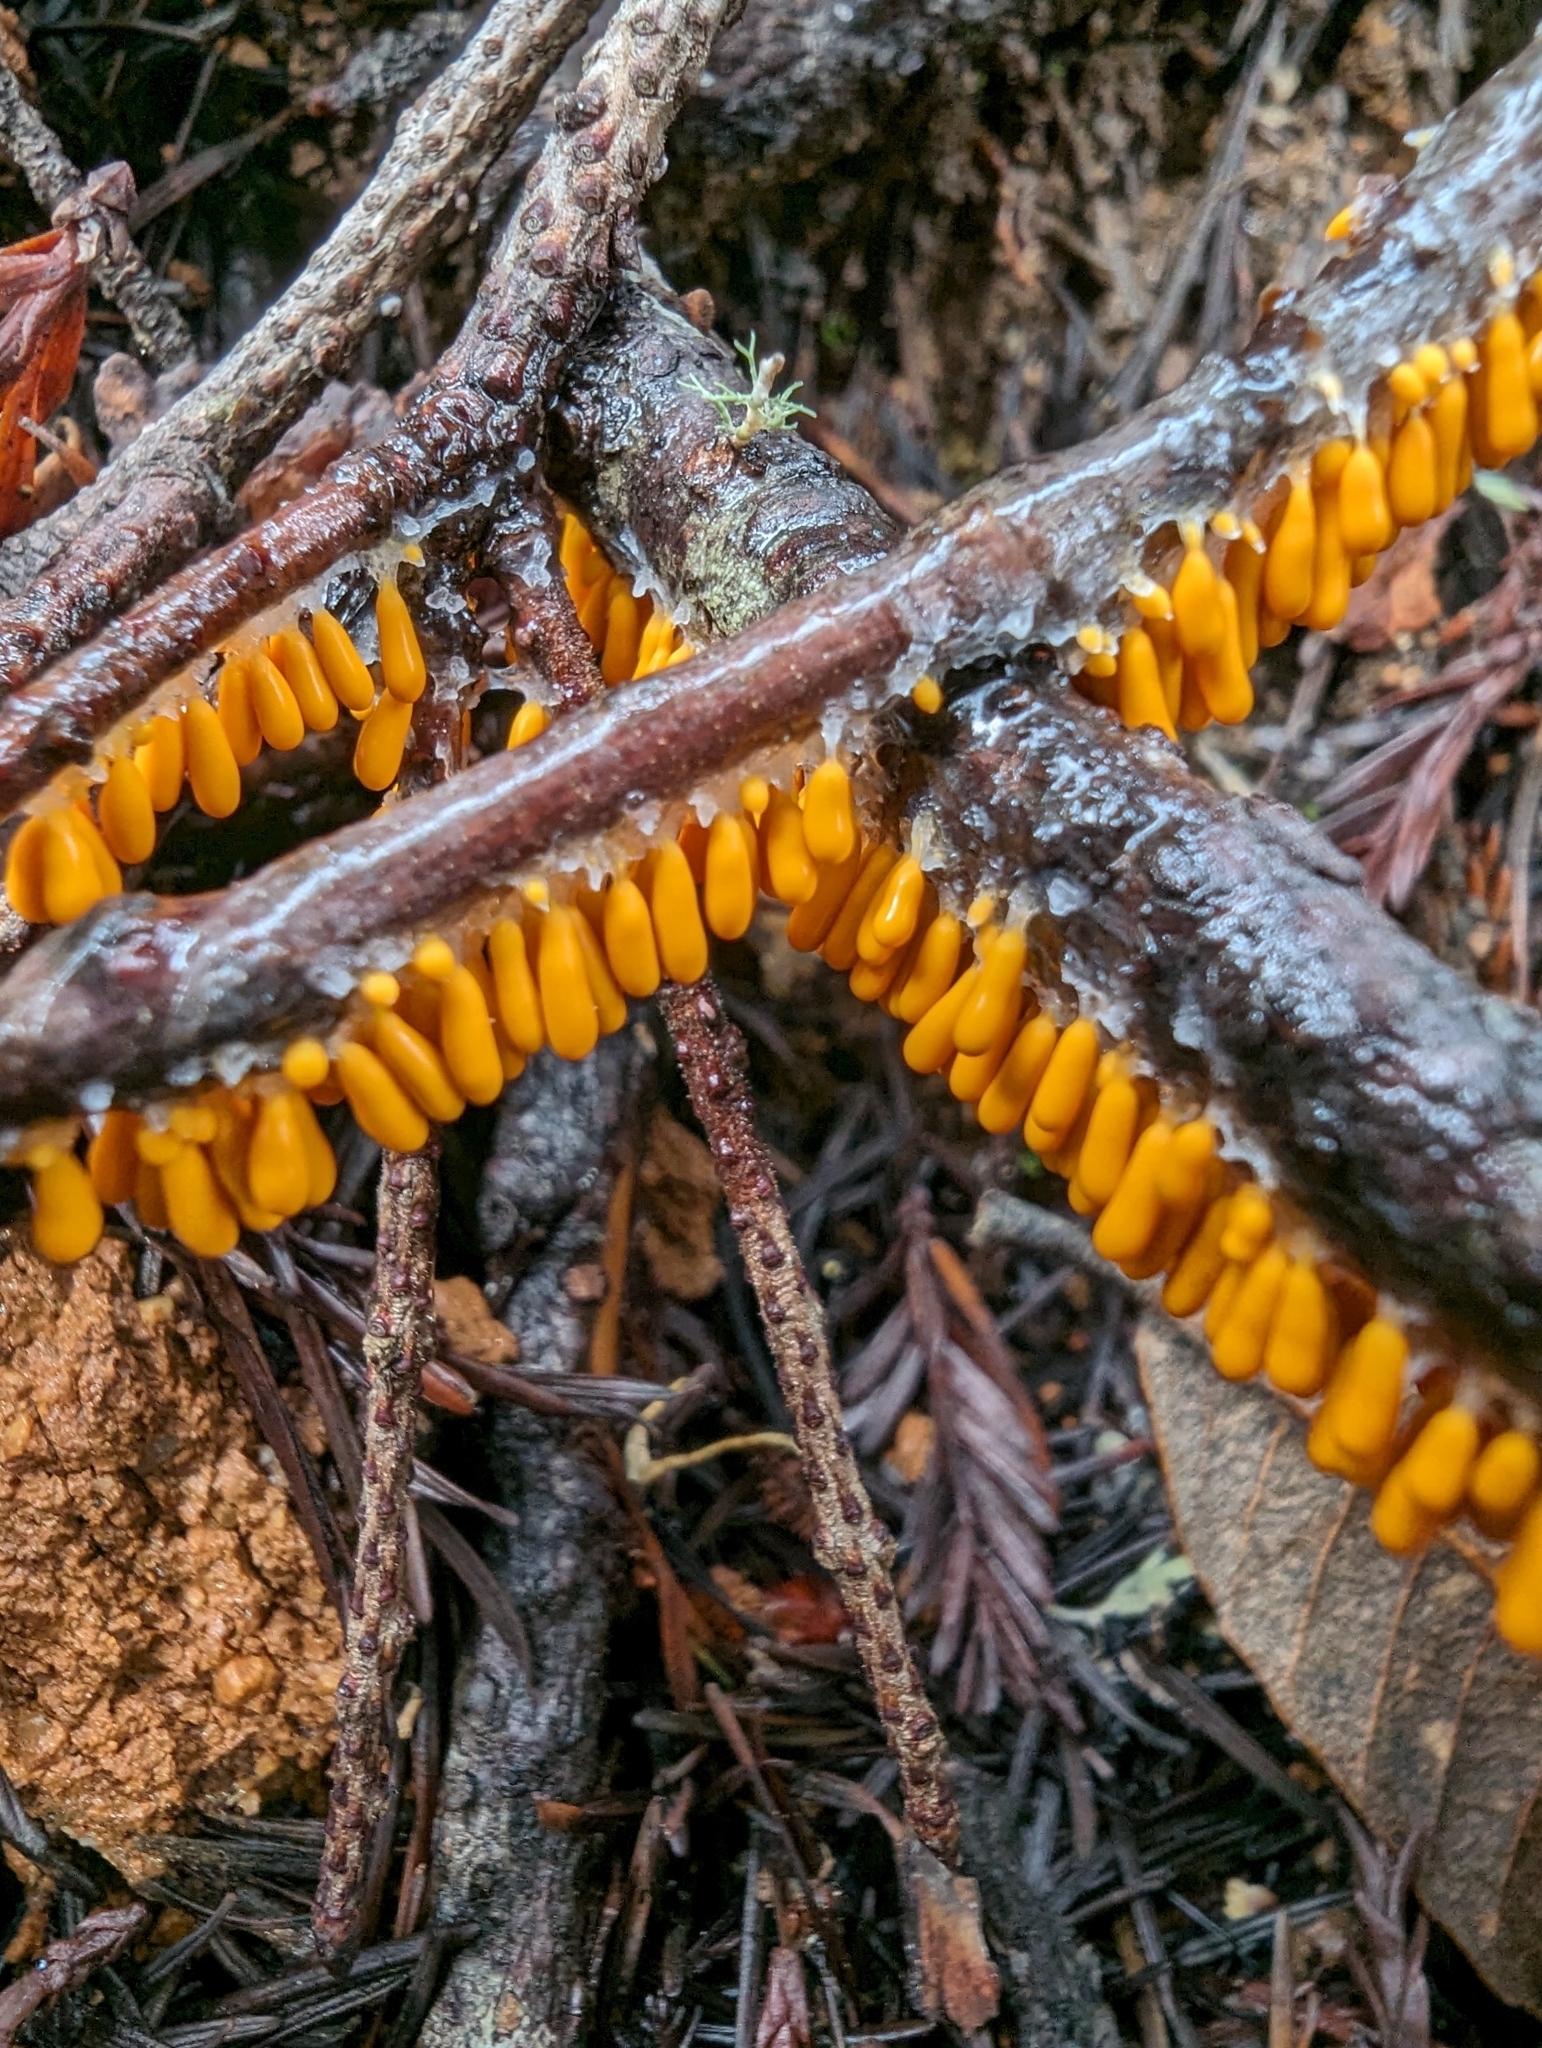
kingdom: Protozoa
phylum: Mycetozoa
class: Myxomycetes
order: Physarales
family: Physaraceae
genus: Leocarpus
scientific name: Leocarpus fragilis
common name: Insect-egg slime
